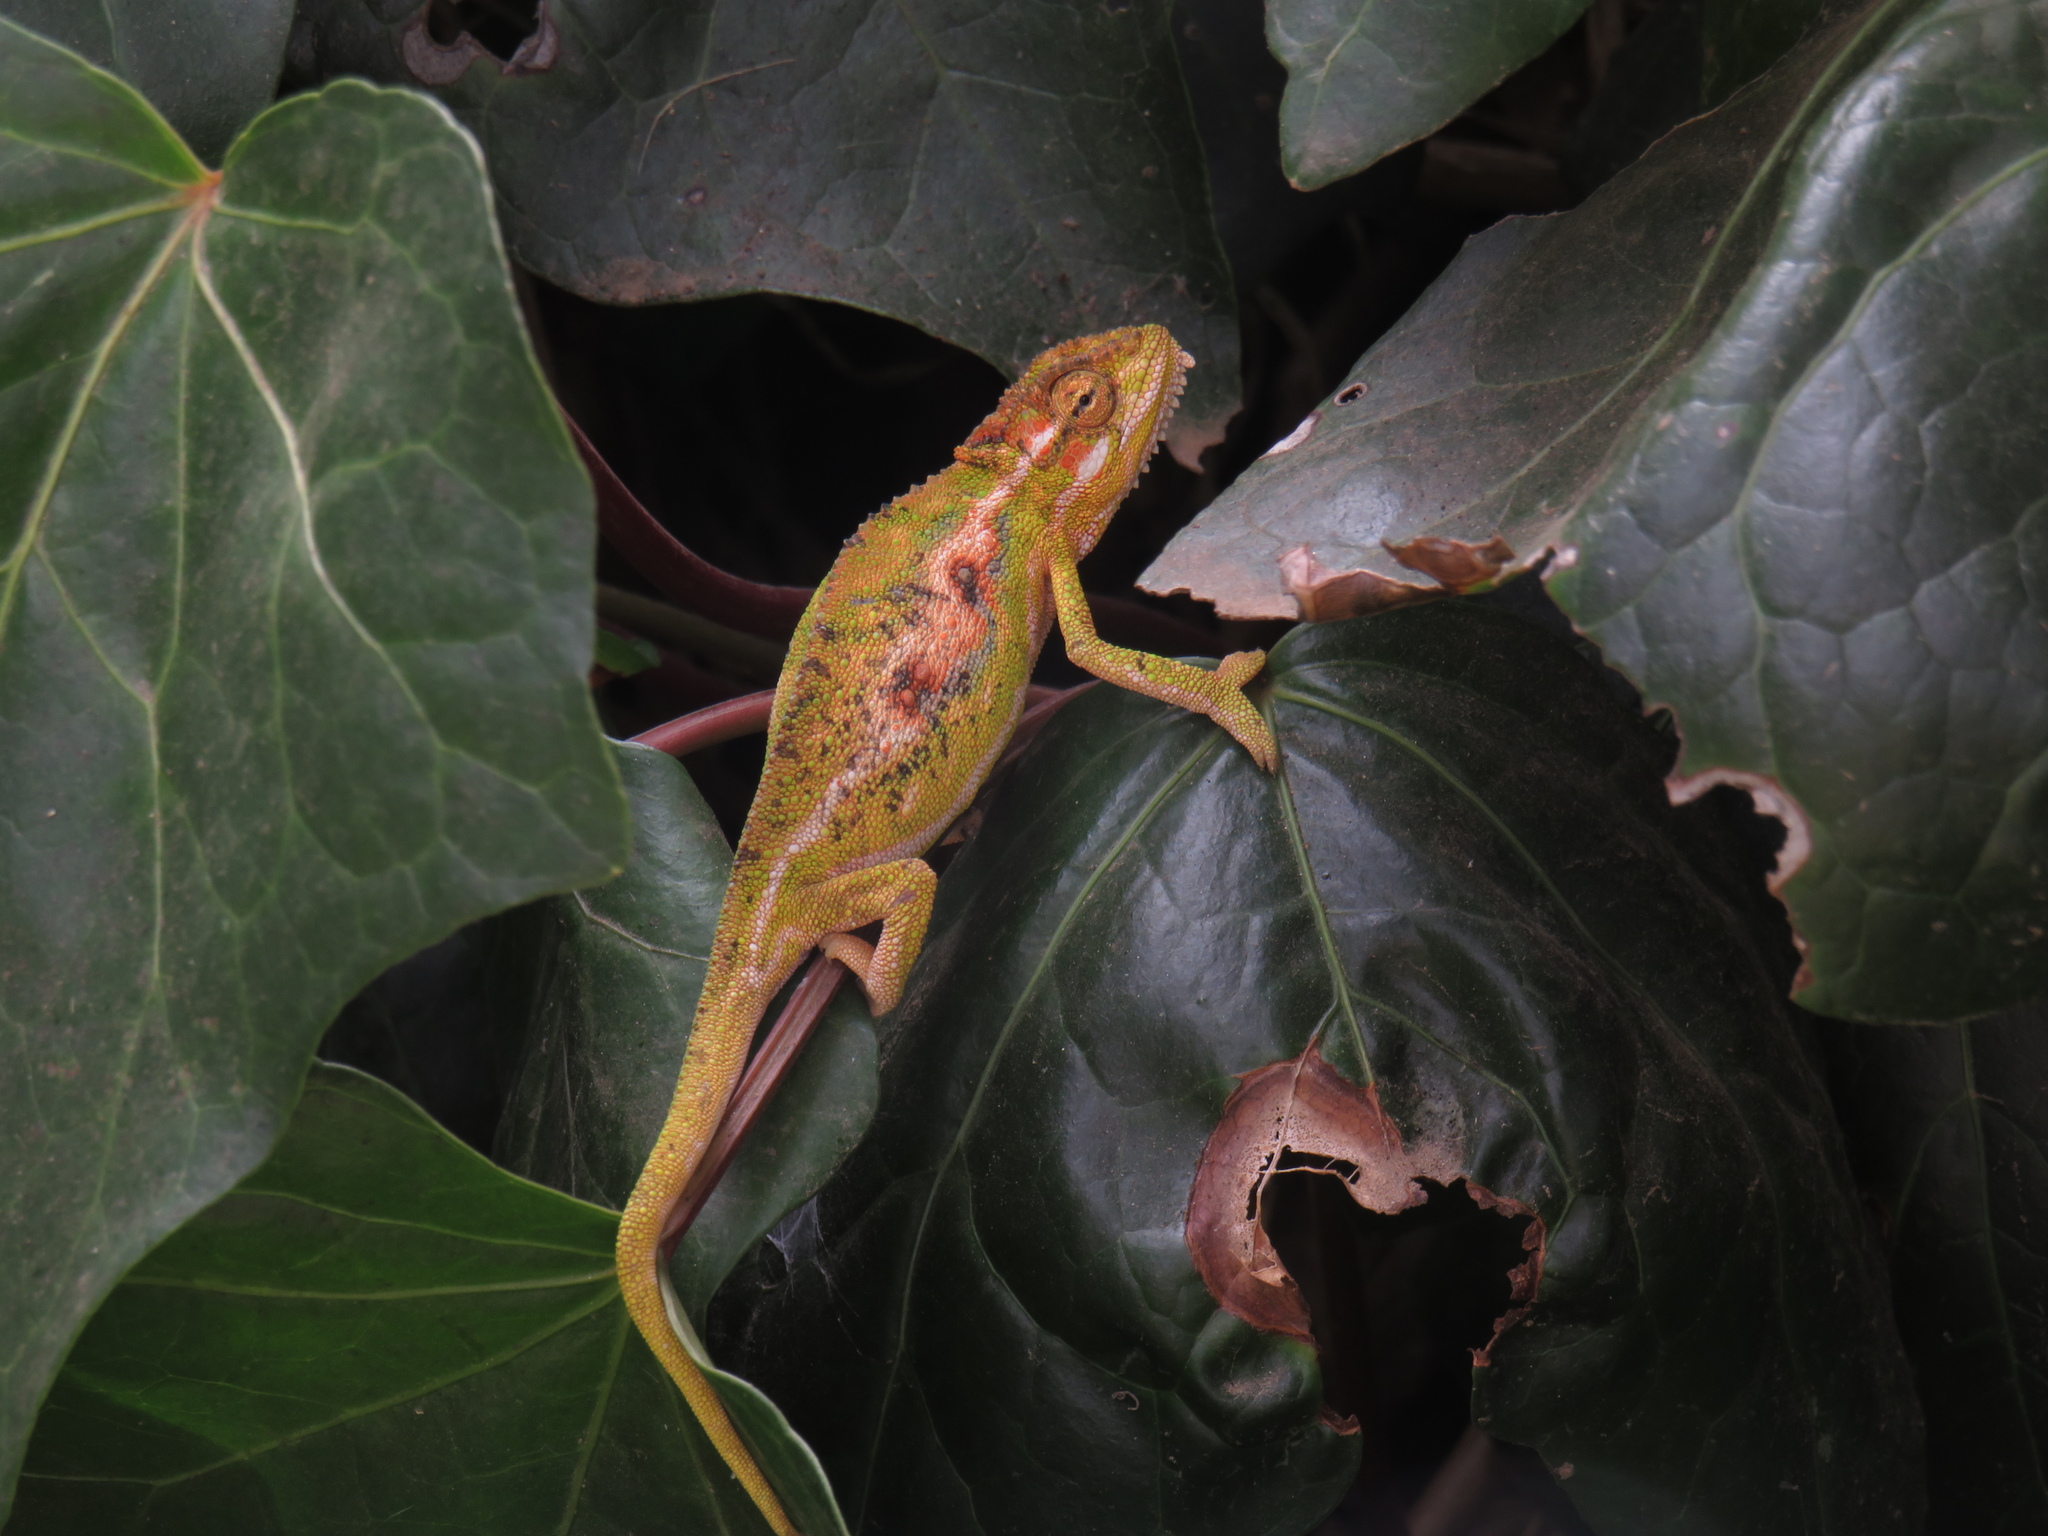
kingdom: Animalia
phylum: Chordata
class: Squamata
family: Chamaeleonidae
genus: Bradypodion
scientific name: Bradypodion pumilum
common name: Cape dwarf chameleon
